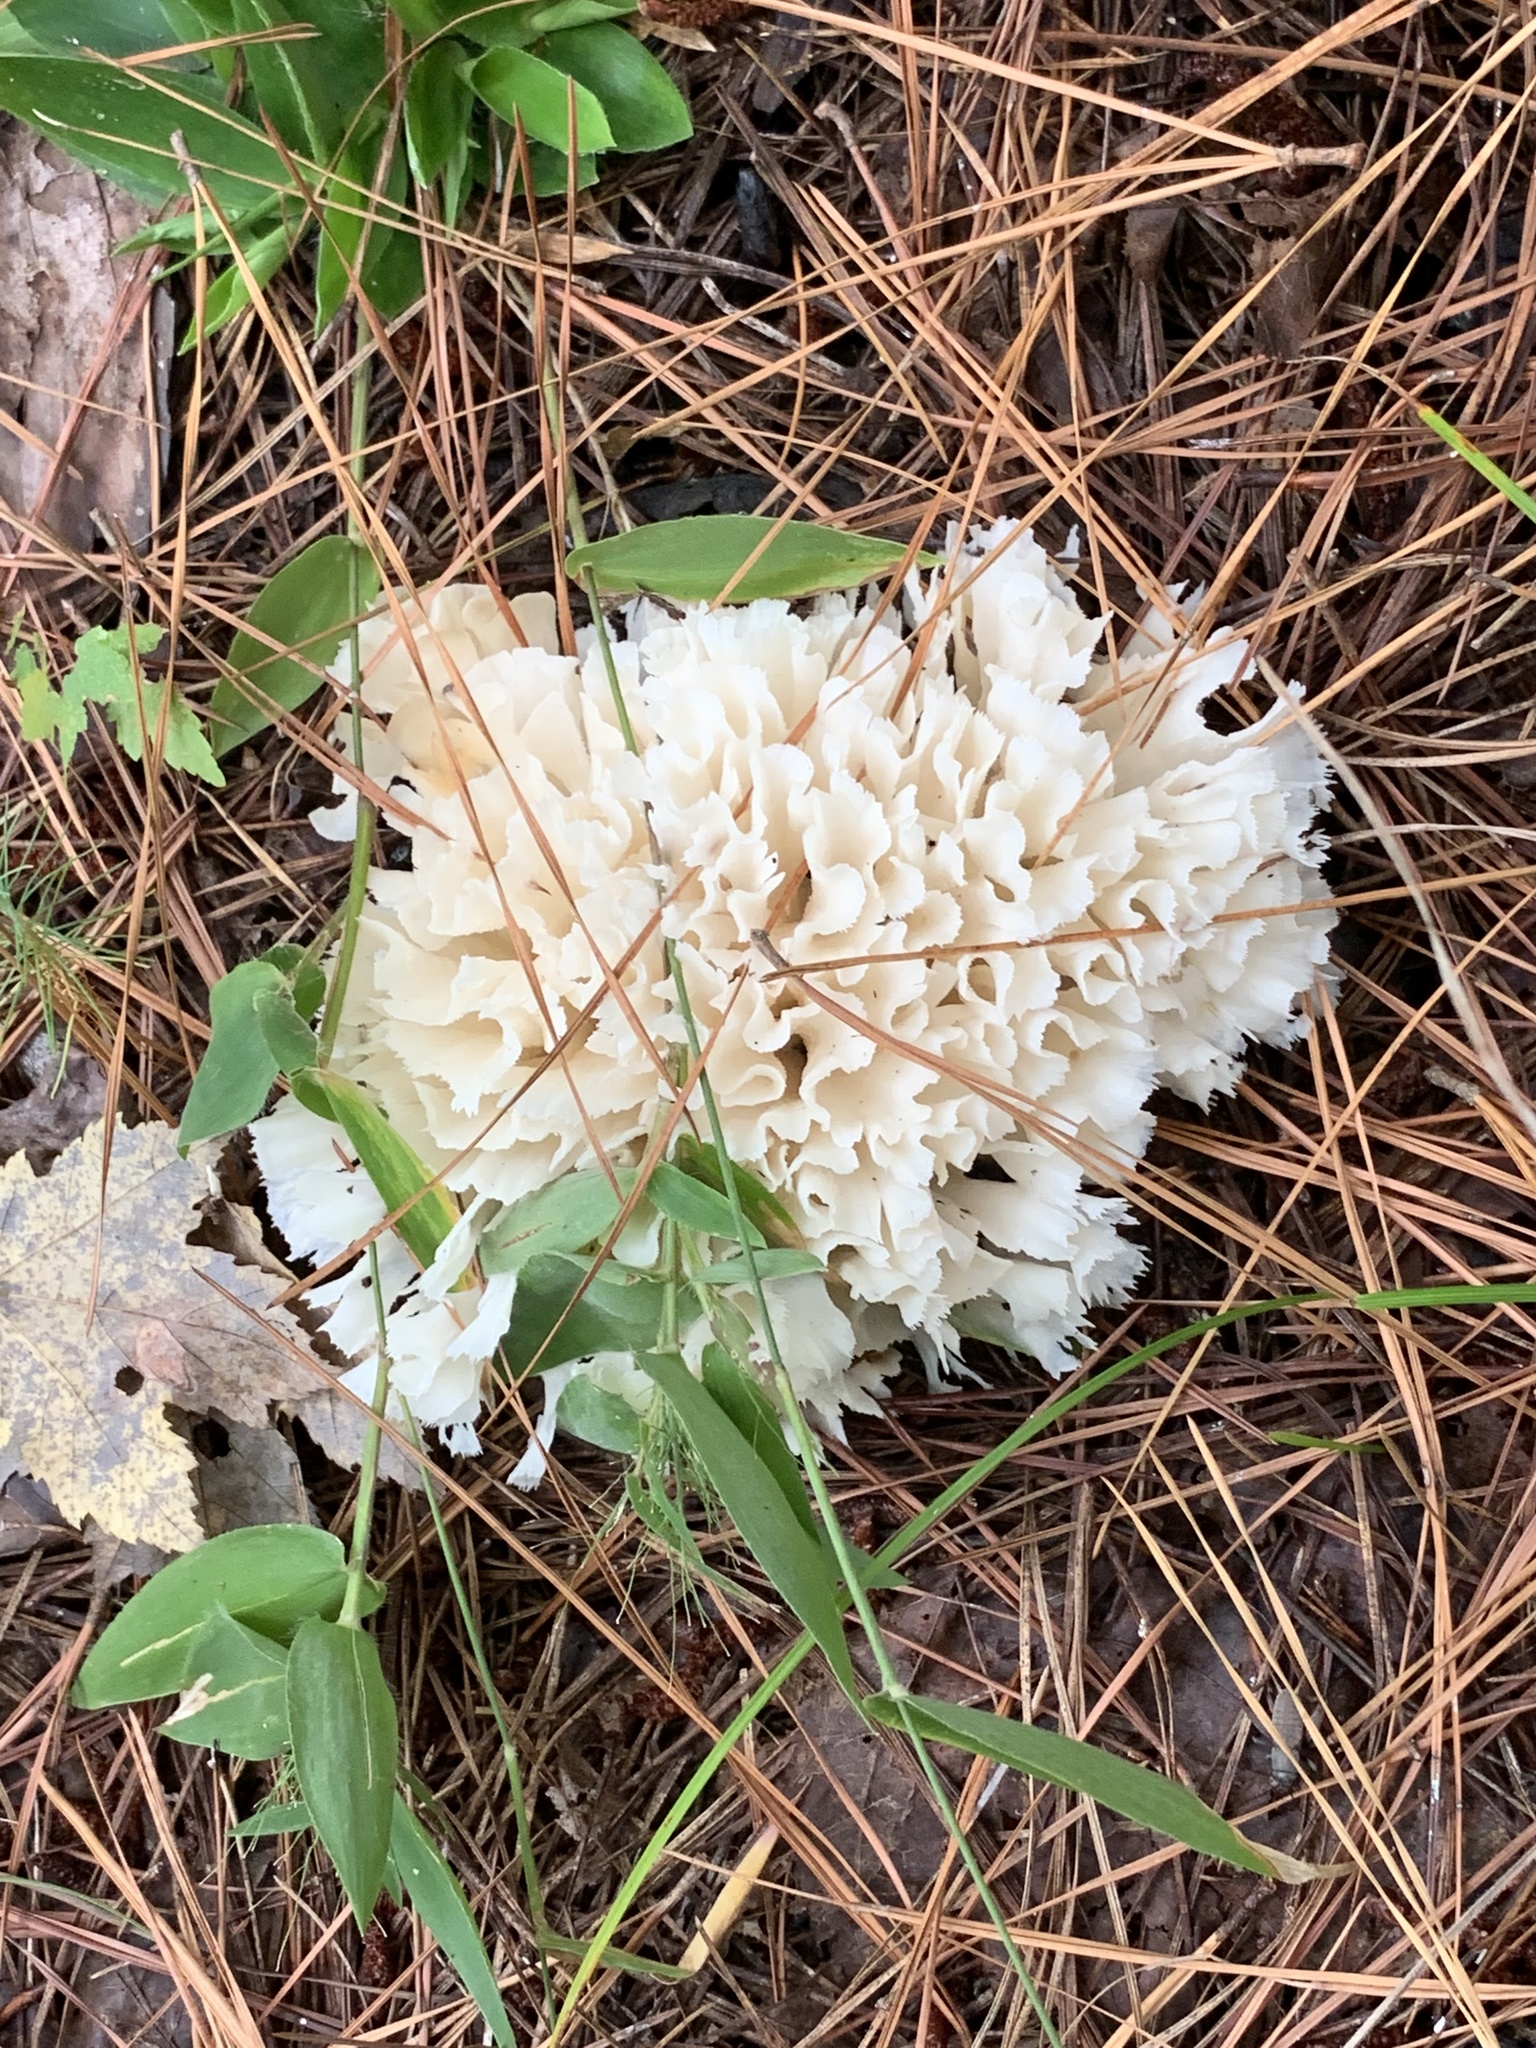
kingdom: Fungi
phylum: Basidiomycota
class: Agaricomycetes
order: Polyporales
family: Sparassidaceae
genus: Sparassis
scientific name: Sparassis spathulata
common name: Eastern cauliflower mushroom
